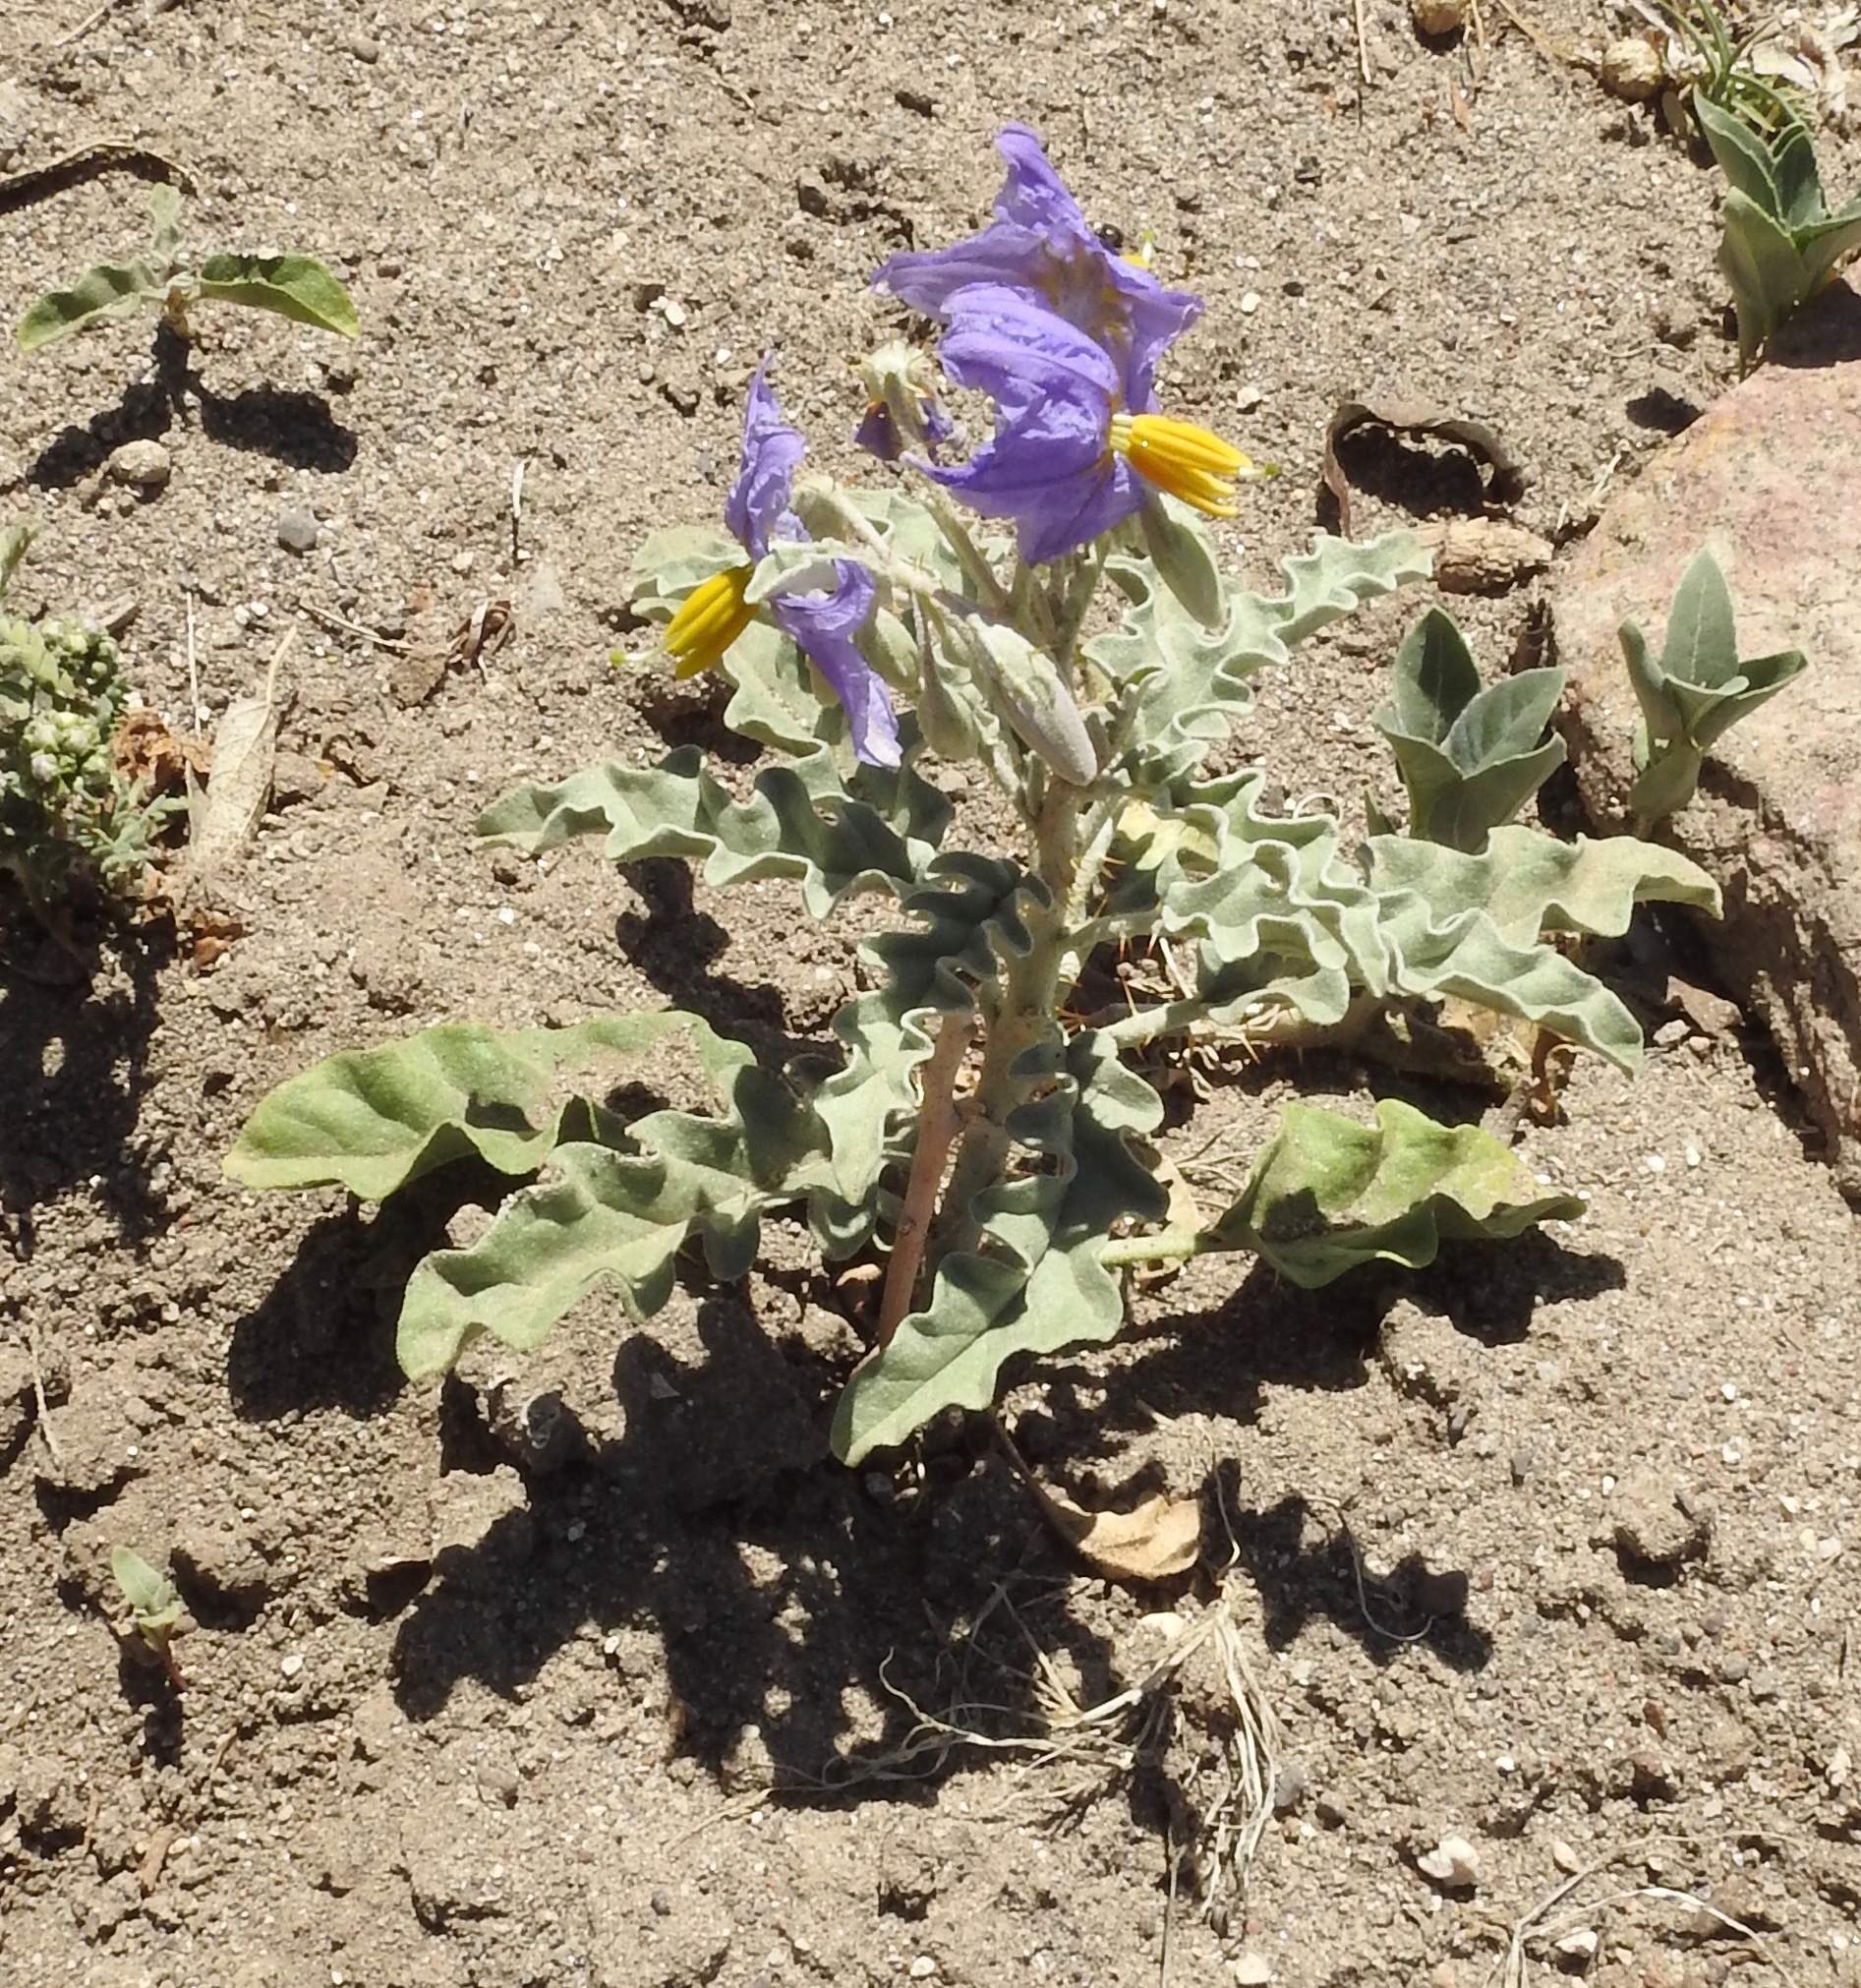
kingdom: Plantae
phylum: Tracheophyta
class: Magnoliopsida
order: Solanales
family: Solanaceae
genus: Solanum
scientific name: Solanum elaeagnifolium
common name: Silverleaf nightshade
